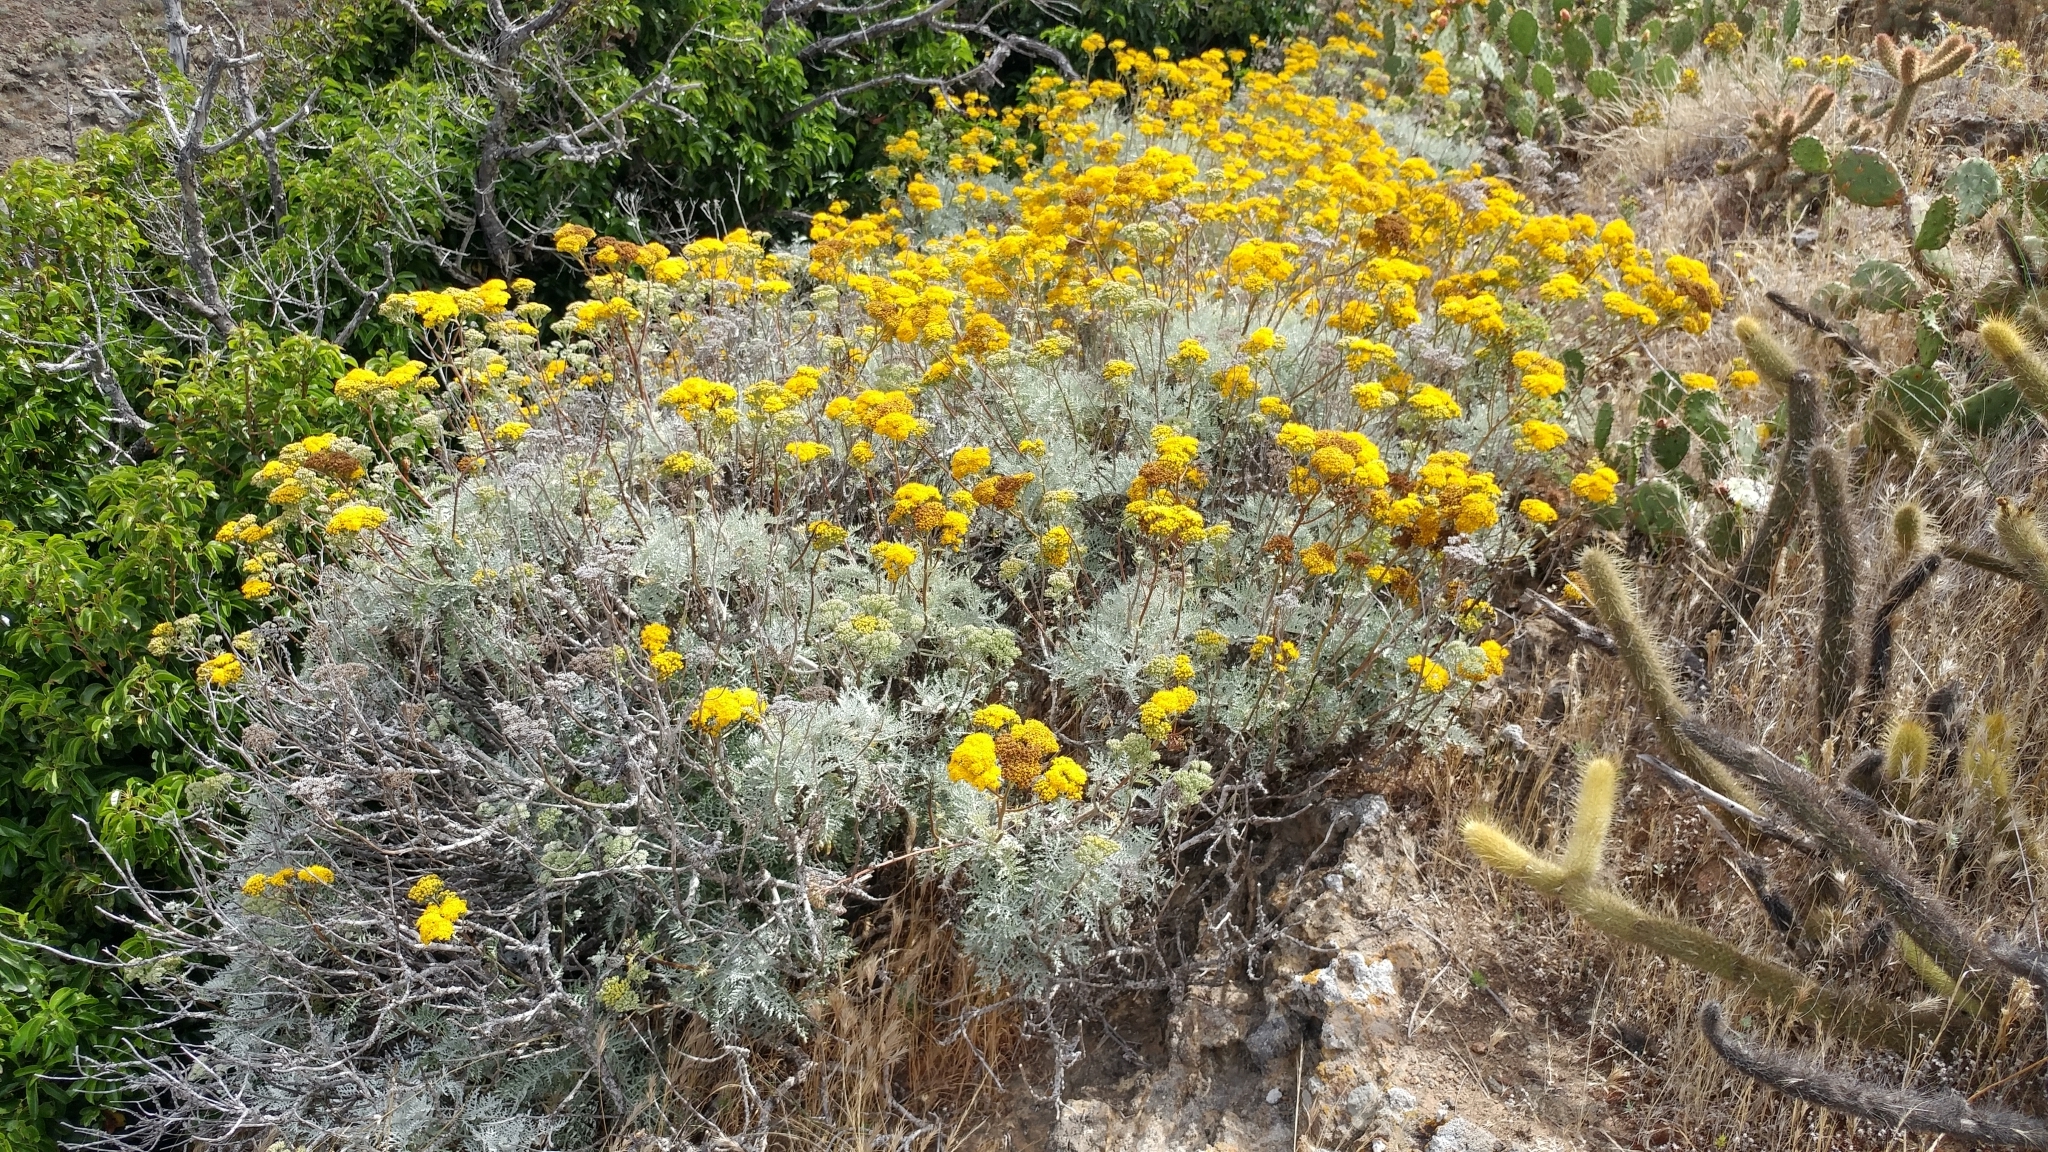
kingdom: Plantae
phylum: Tracheophyta
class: Magnoliopsida
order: Asterales
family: Asteraceae
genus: Constancea
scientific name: Constancea nevinii
